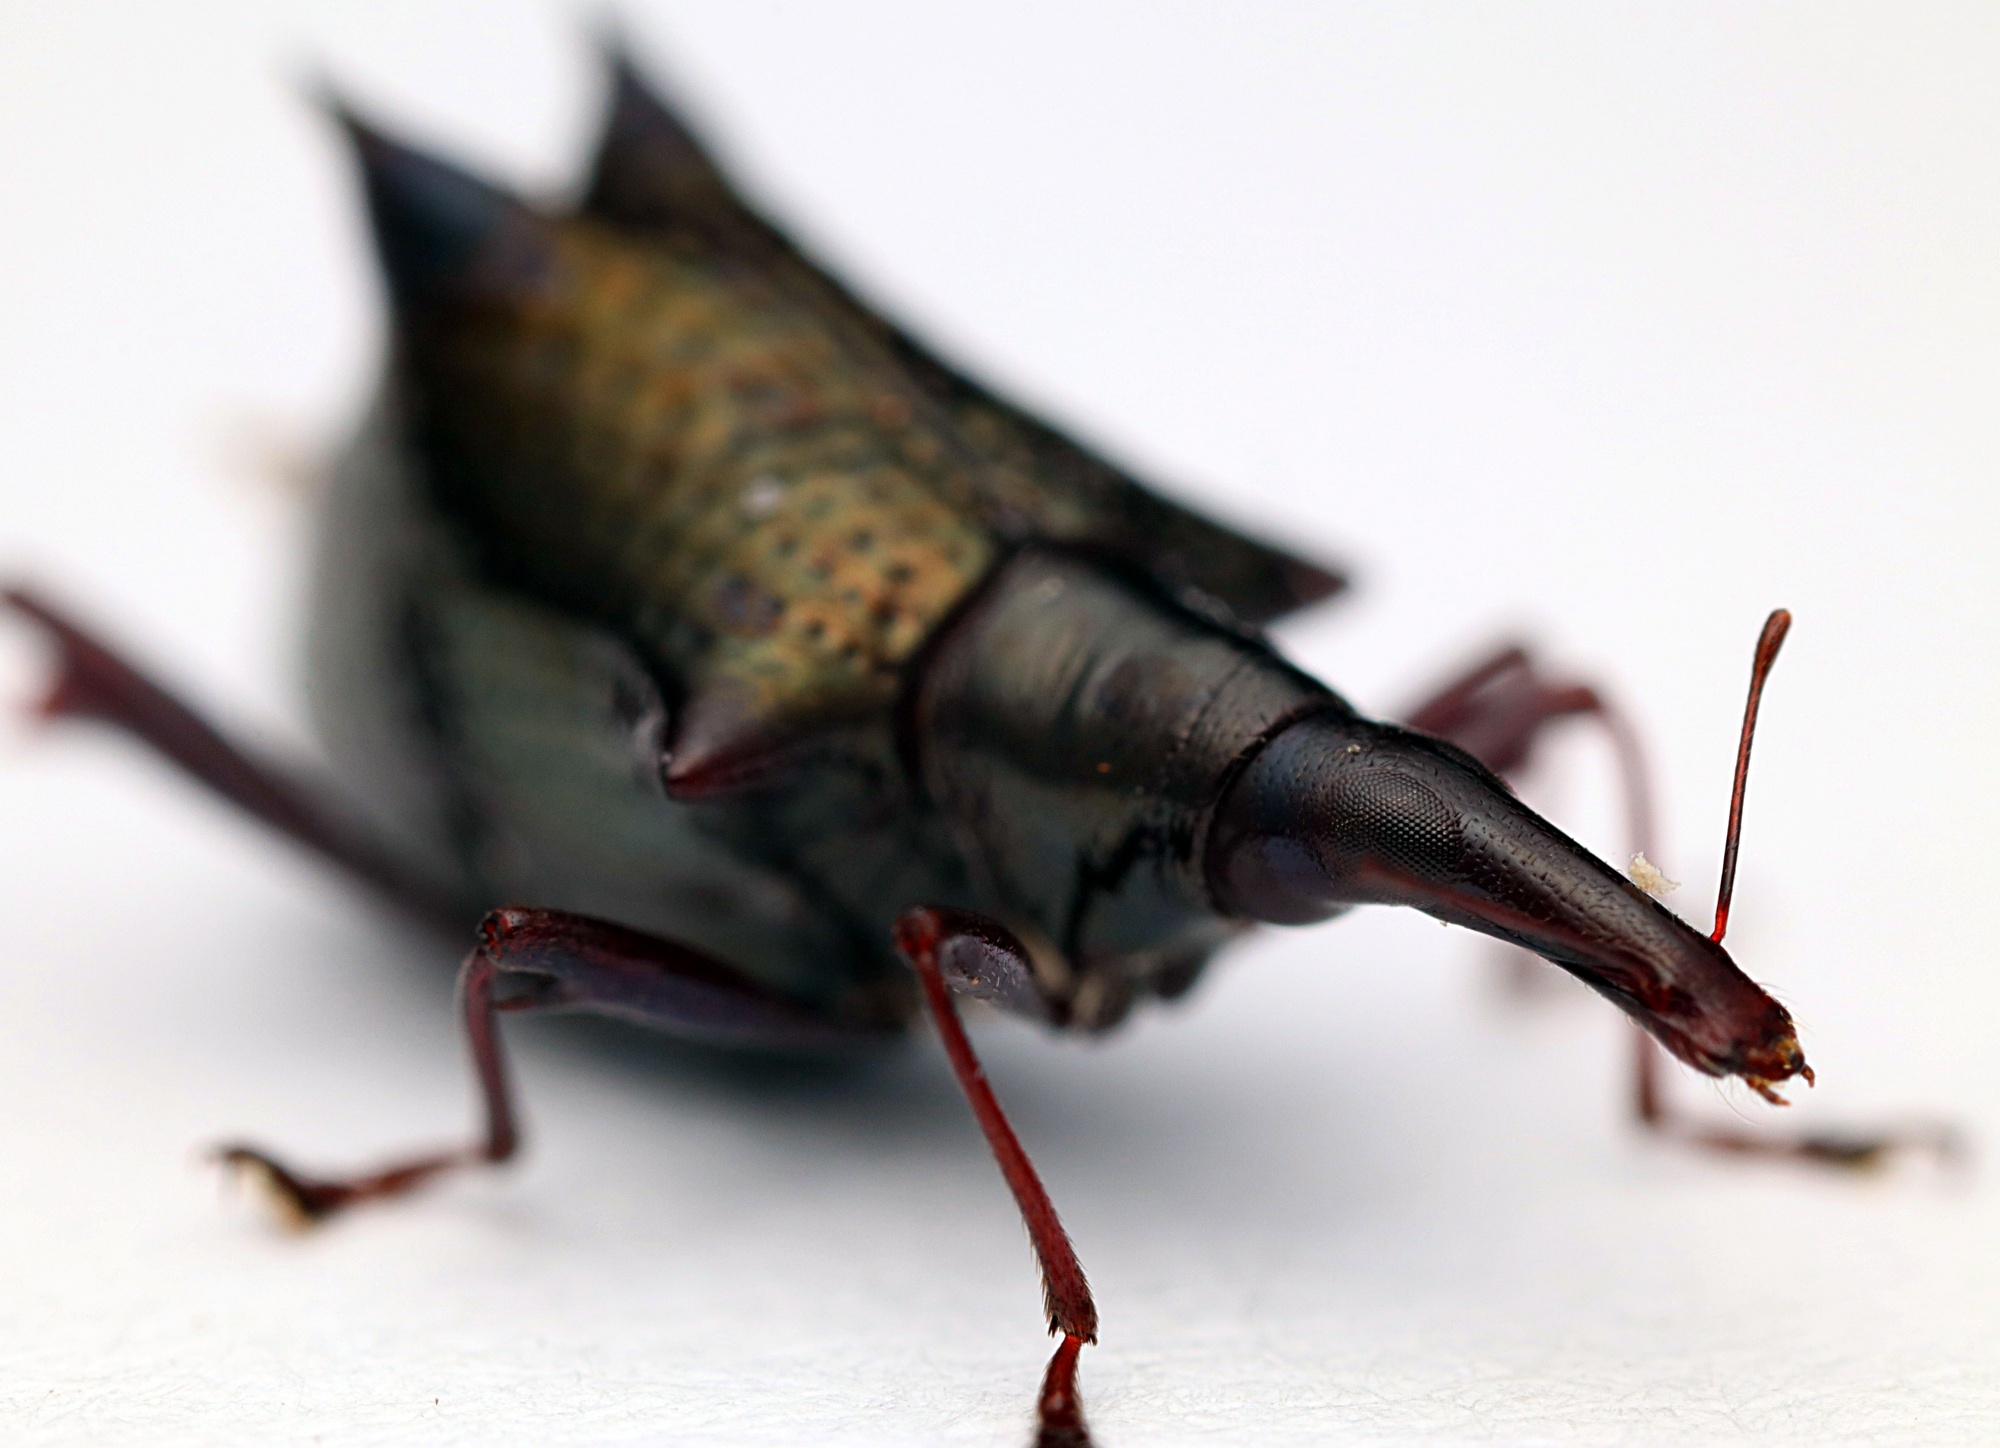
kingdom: Animalia
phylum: Arthropoda
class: Insecta
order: Coleoptera
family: Curculionidae
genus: Scolopterus
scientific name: Scolopterus aequus
